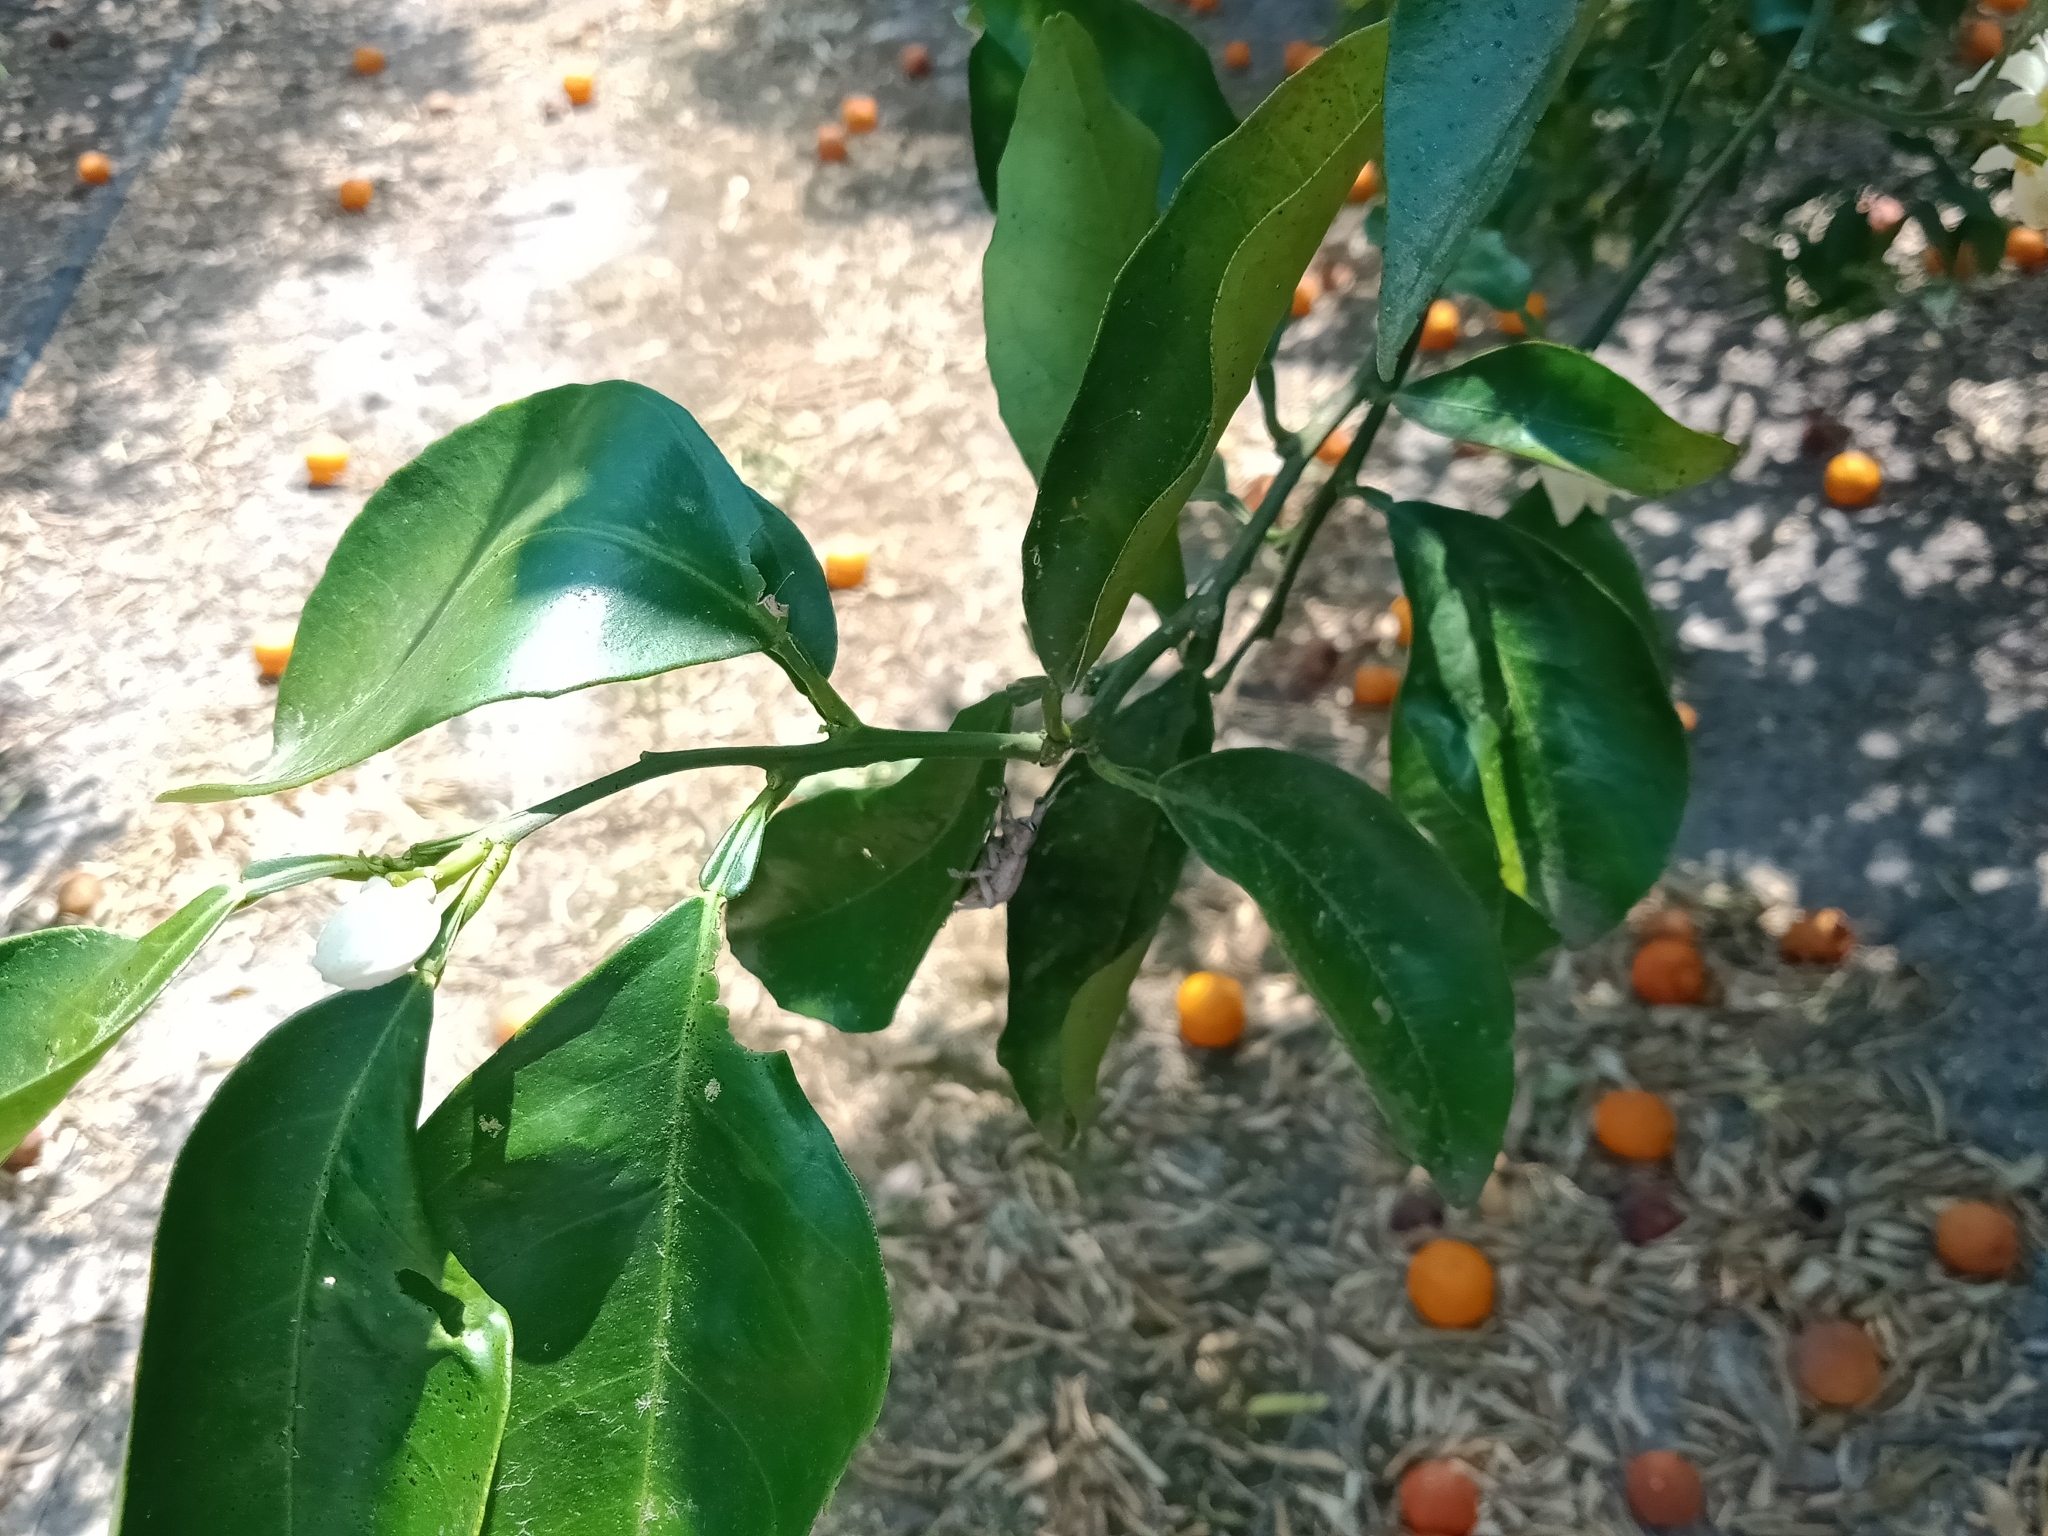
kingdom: Animalia
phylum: Arthropoda
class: Insecta
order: Coleoptera
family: Curculionidae
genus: Leptopius
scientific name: Leptopius robustus
